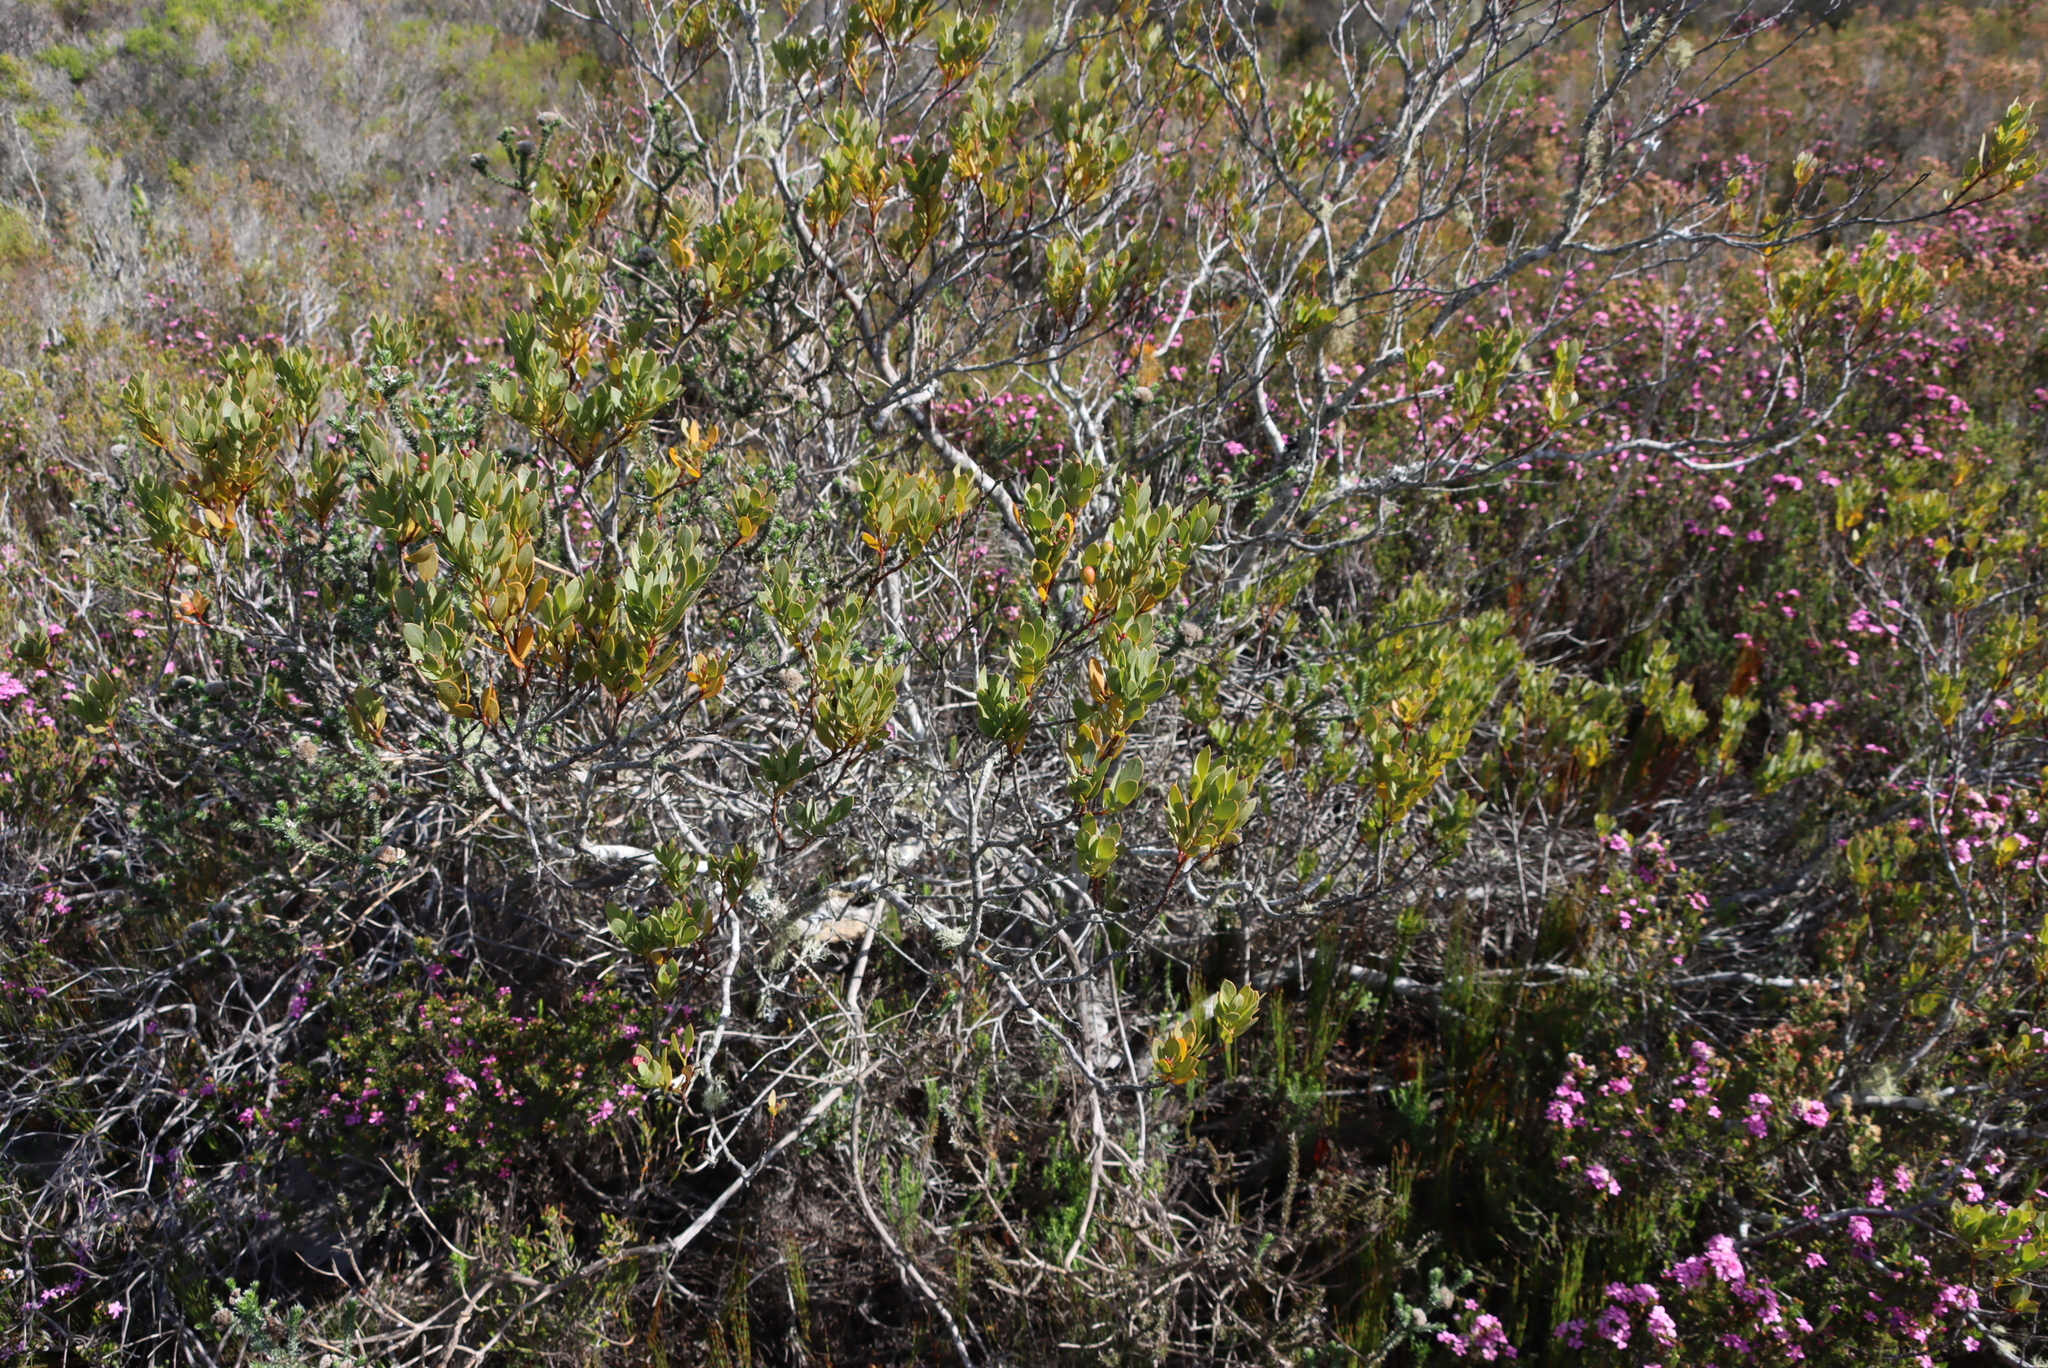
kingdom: Plantae
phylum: Tracheophyta
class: Magnoliopsida
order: Santalales
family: Santalaceae
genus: Osyris
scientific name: Osyris compressa
